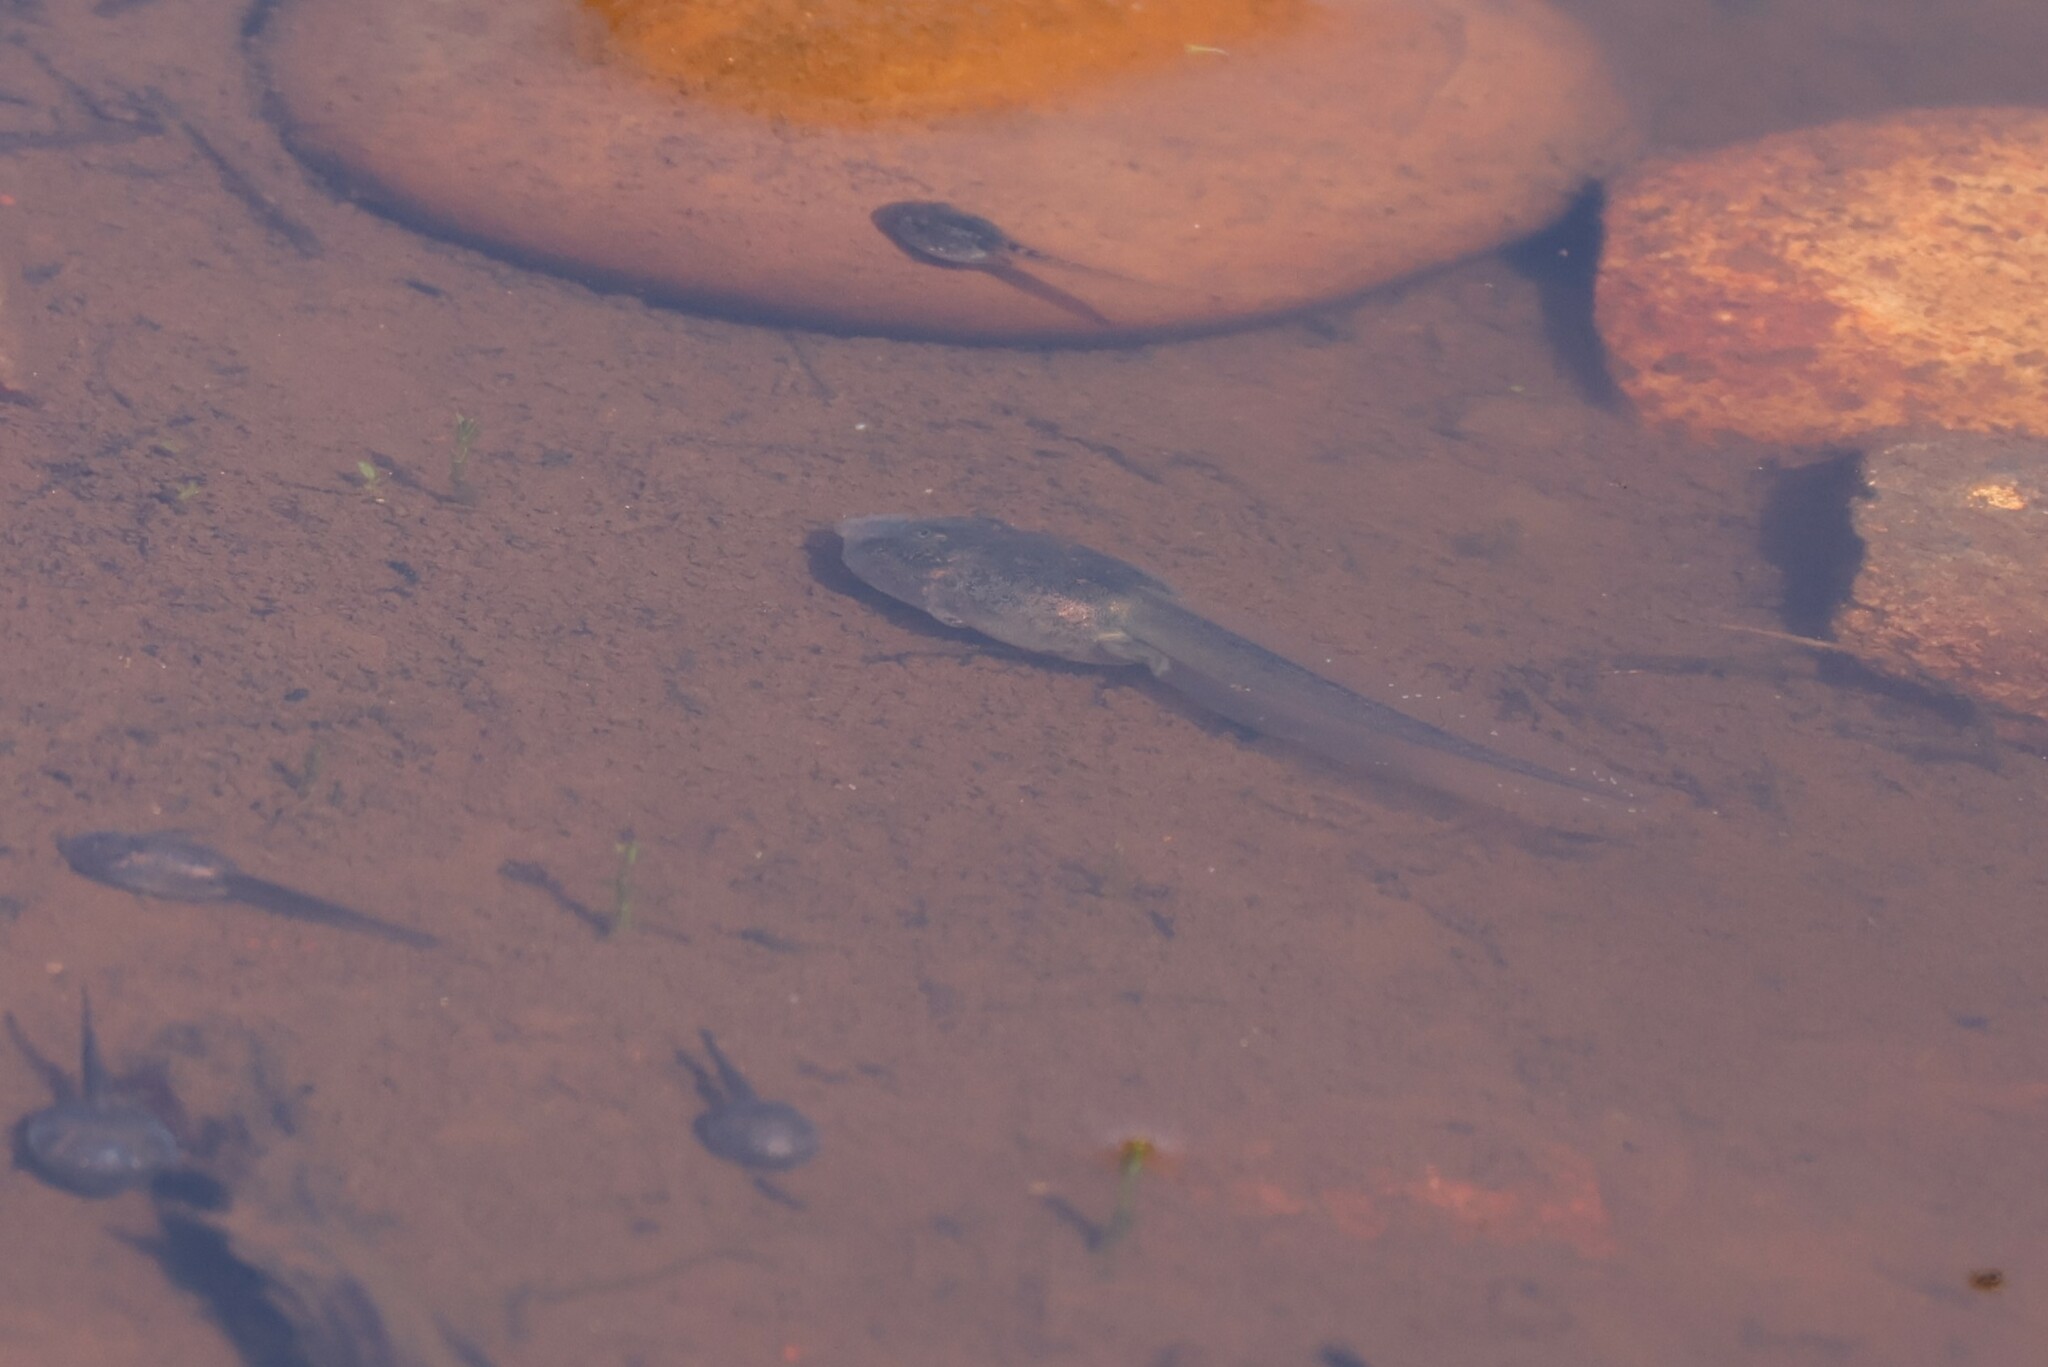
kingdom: Animalia
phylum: Chordata
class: Amphibia
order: Anura
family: Scaphiopodidae
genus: Spea
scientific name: Spea hammondii
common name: Western spadefoot toad
